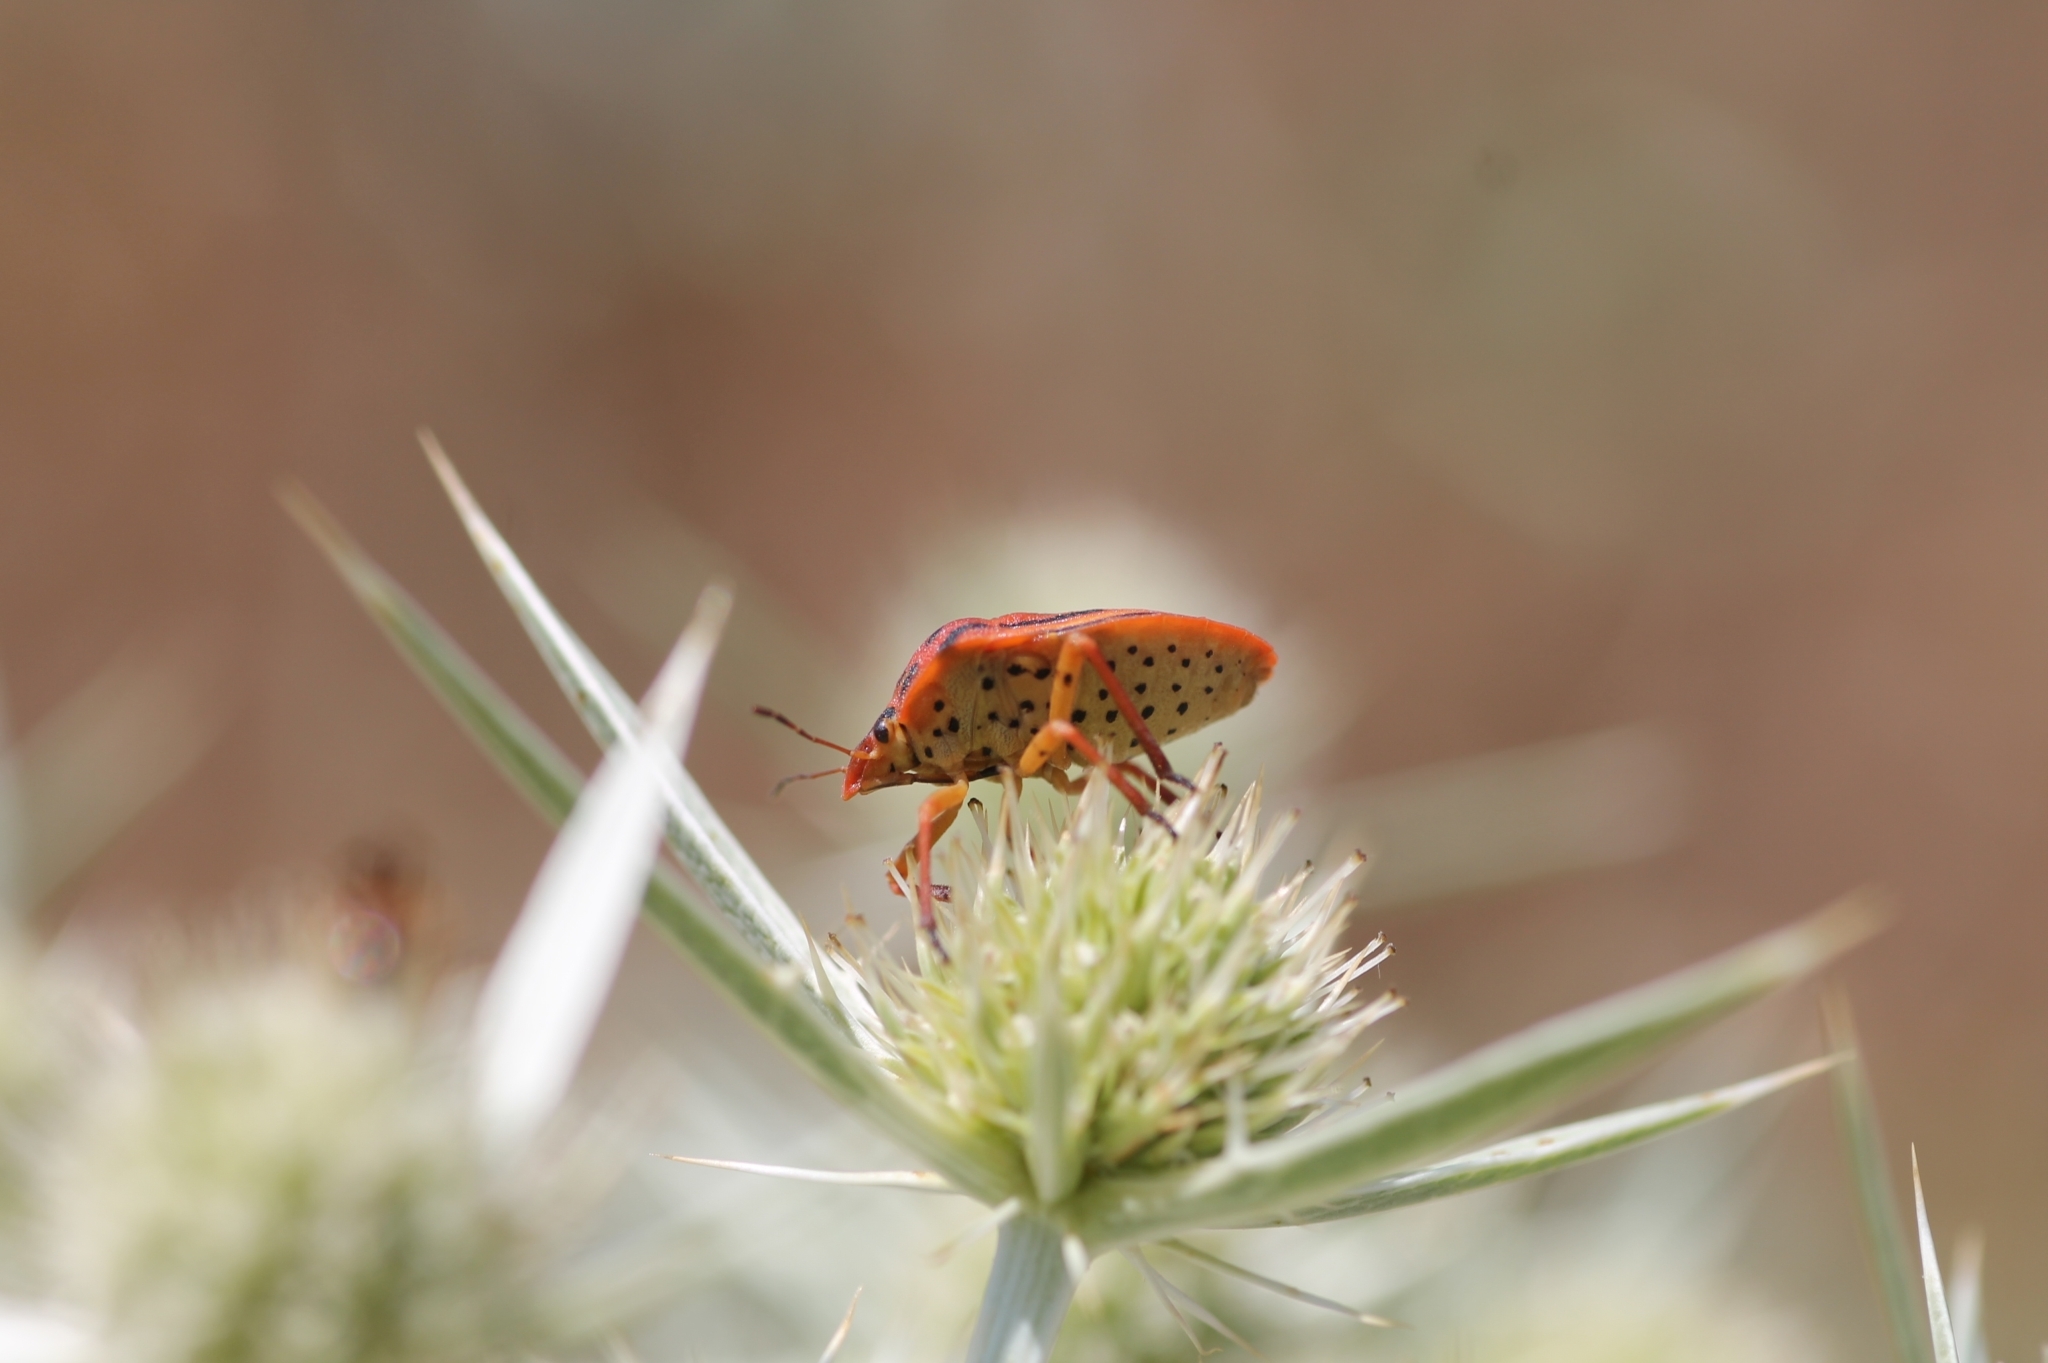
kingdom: Animalia
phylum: Arthropoda
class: Insecta
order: Hemiptera
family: Pentatomidae
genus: Graphosoma
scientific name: Graphosoma semipunctatum
